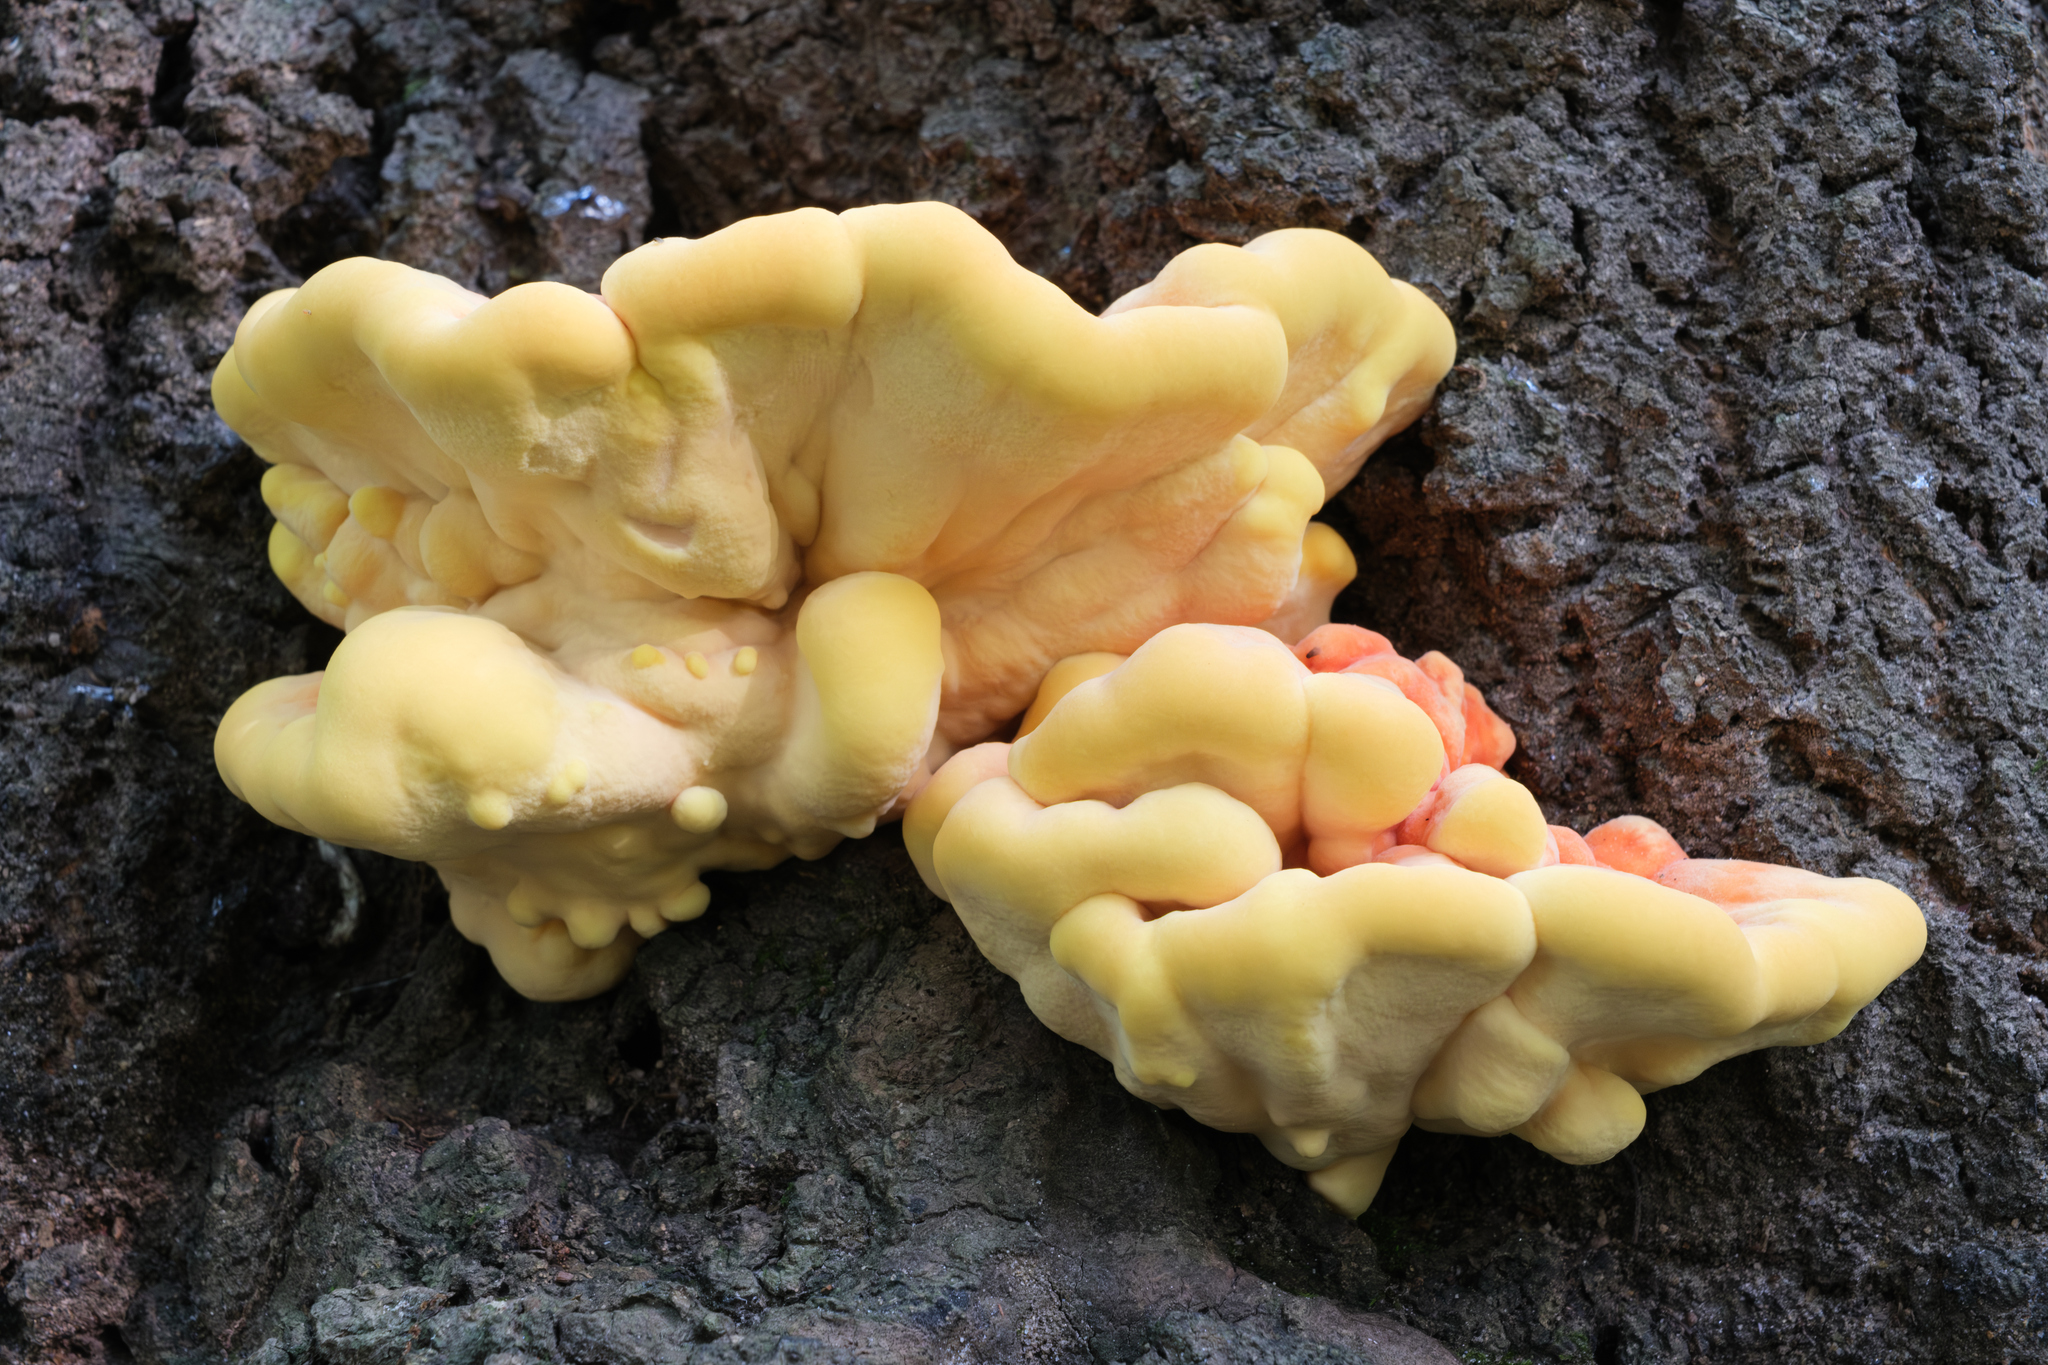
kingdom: Fungi
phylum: Basidiomycota
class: Agaricomycetes
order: Polyporales
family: Laetiporaceae
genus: Laetiporus
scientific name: Laetiporus sulphureus
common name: Chicken of the woods
